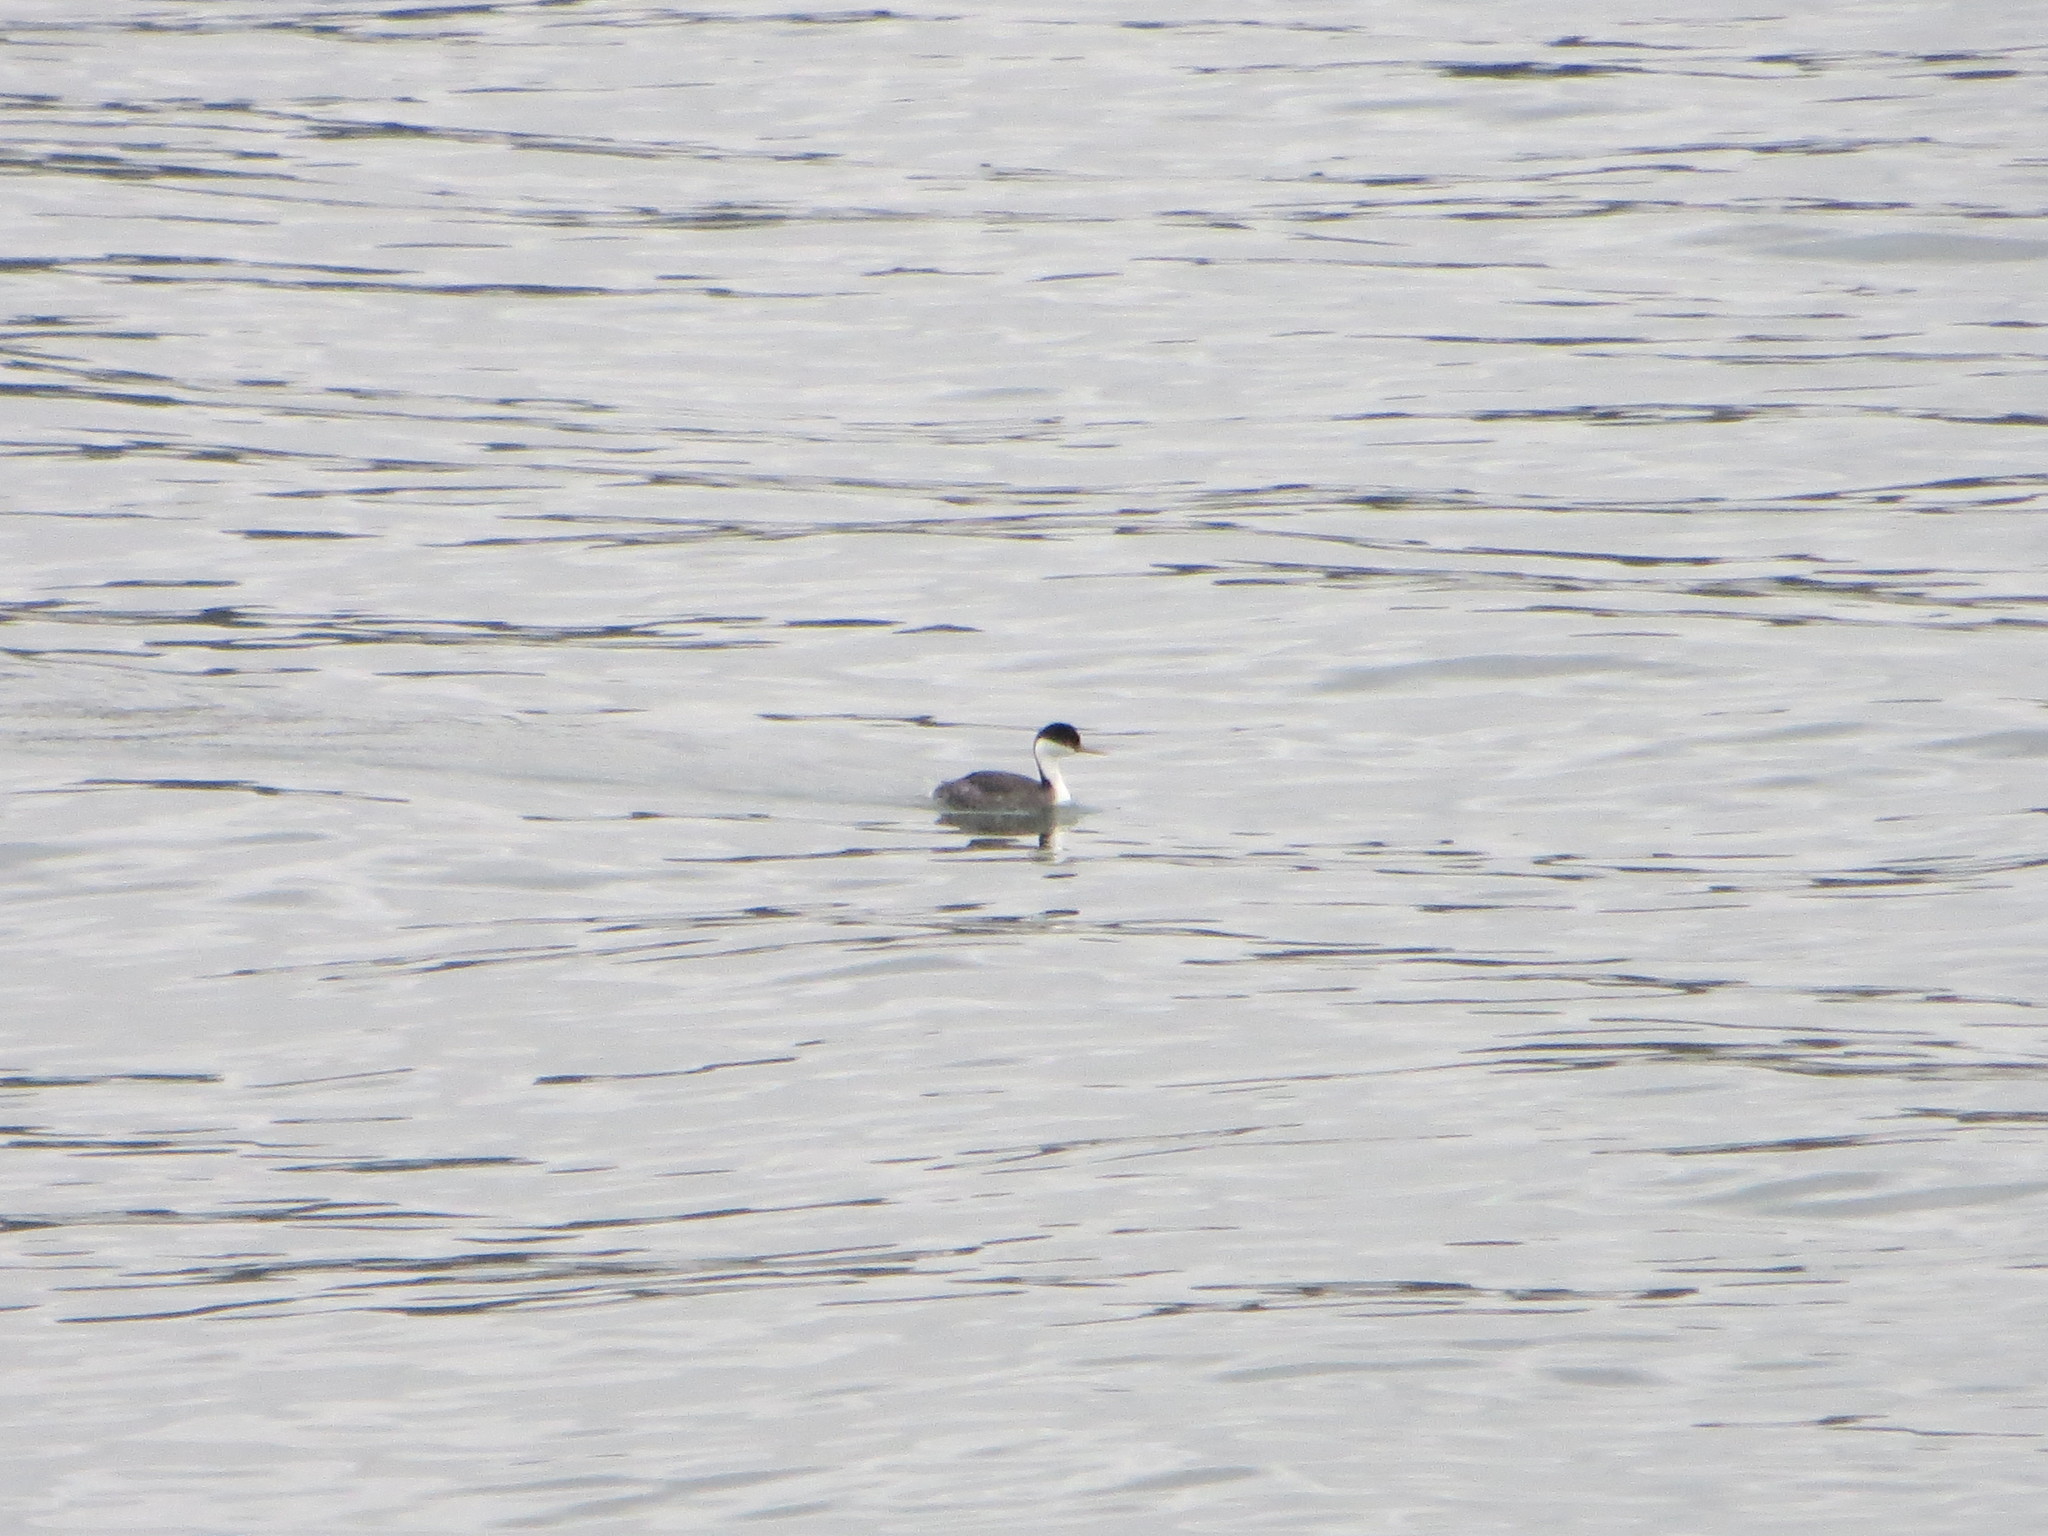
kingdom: Animalia
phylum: Chordata
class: Aves
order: Podicipediformes
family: Podicipedidae
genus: Aechmophorus
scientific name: Aechmophorus occidentalis
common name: Western grebe
